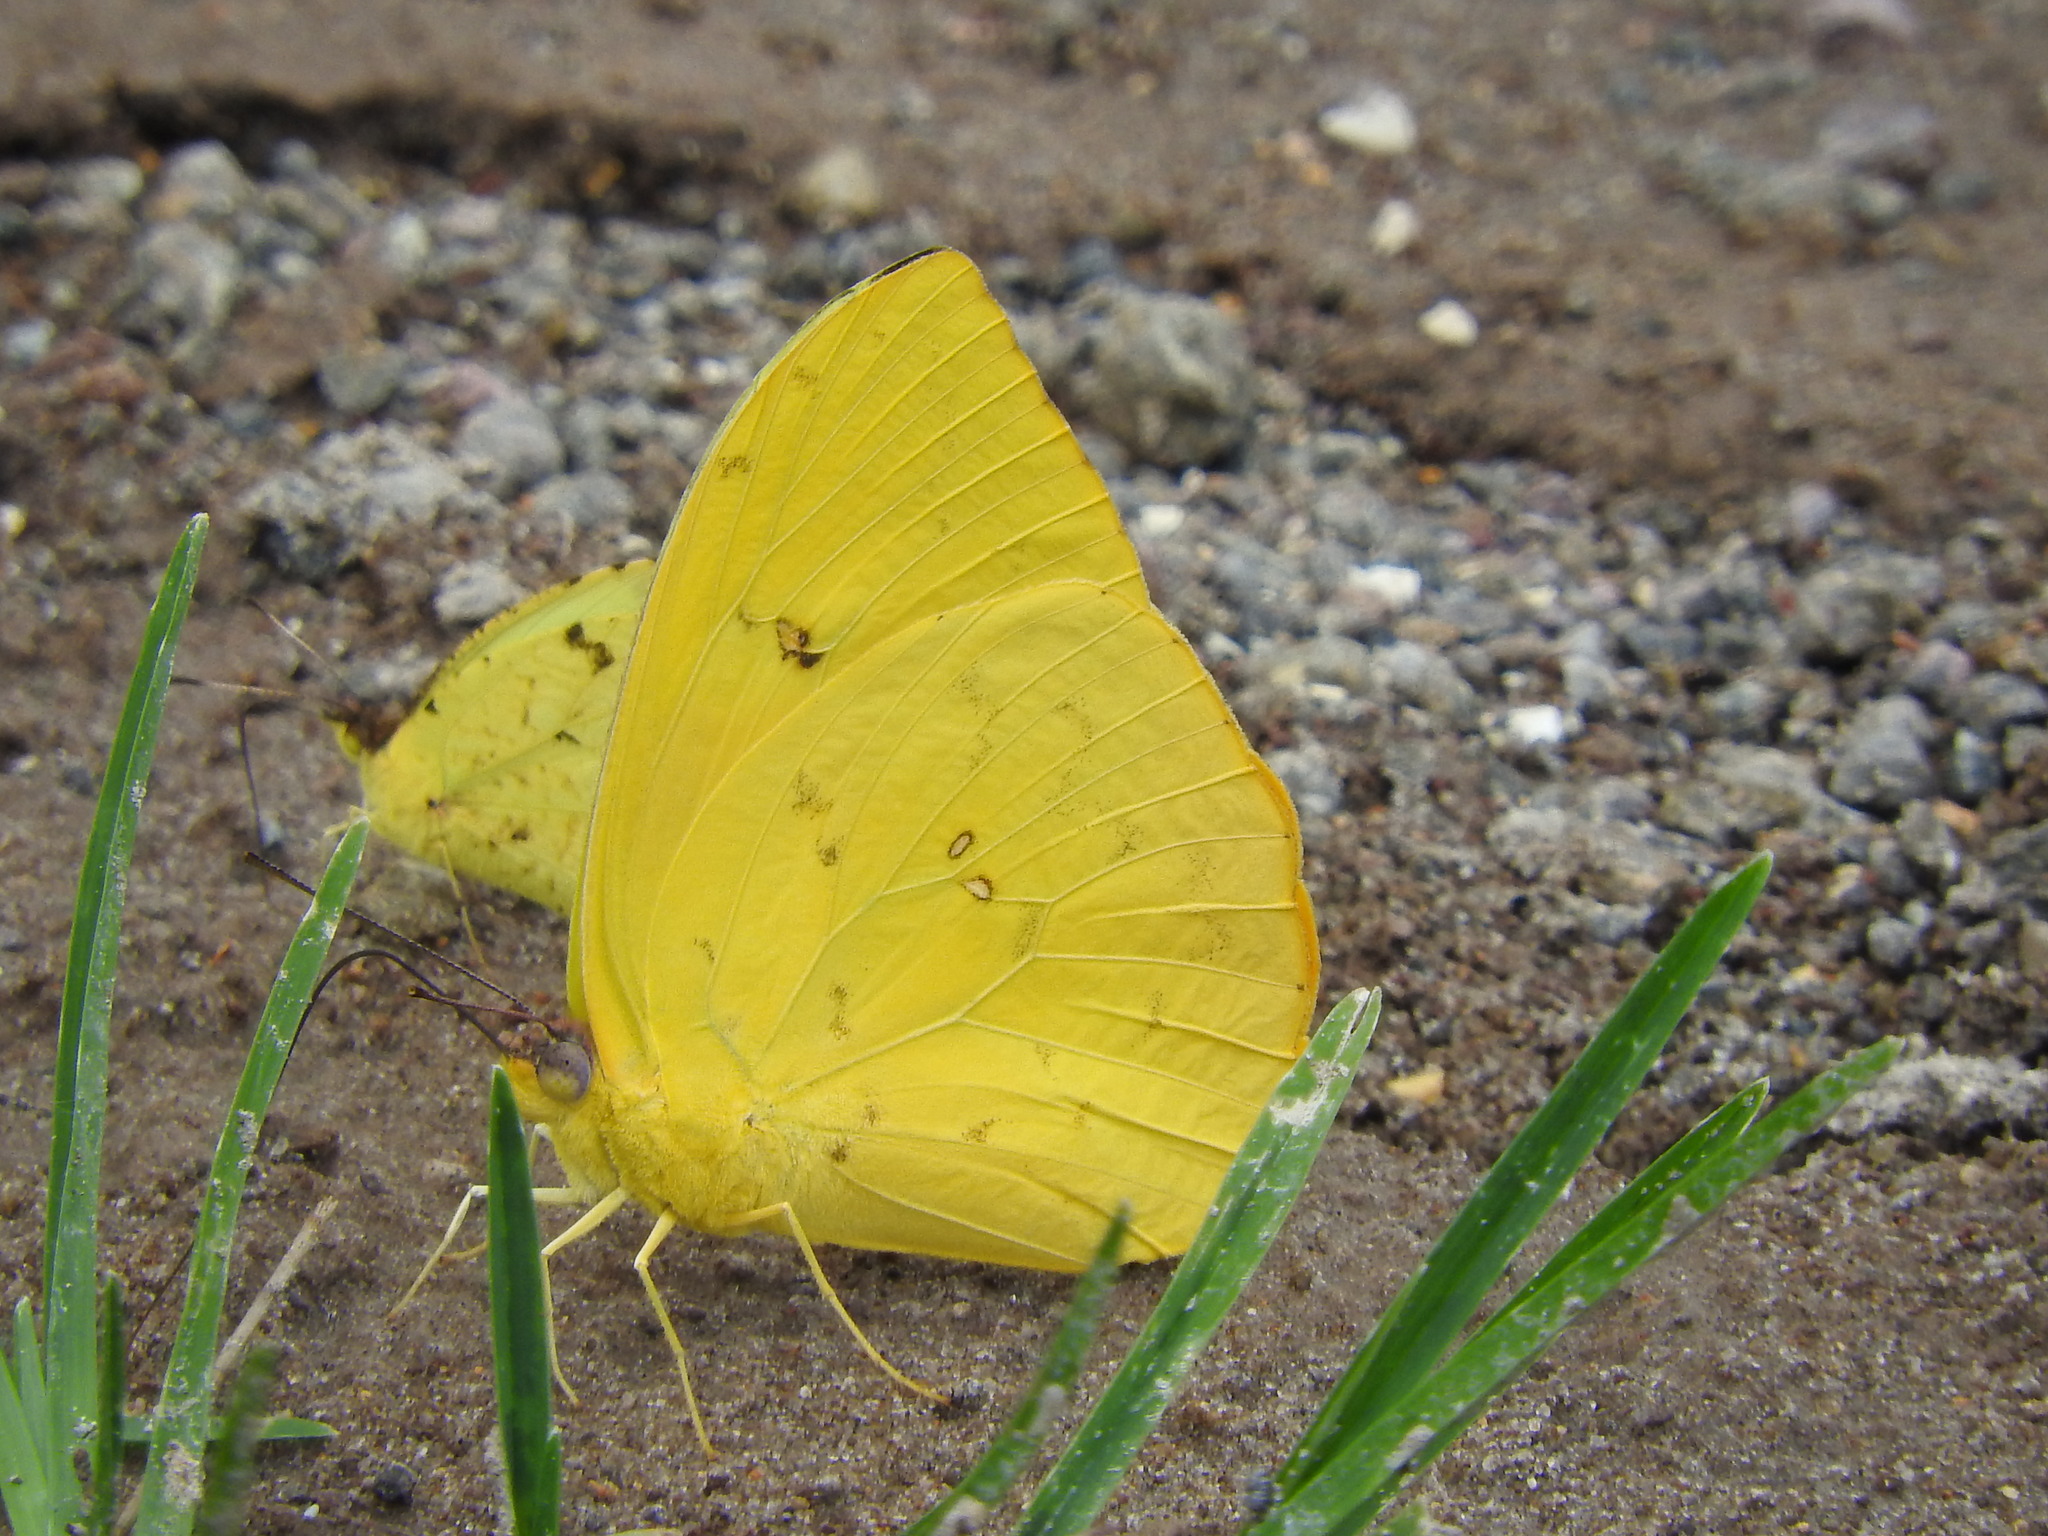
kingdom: Animalia
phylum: Arthropoda
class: Insecta
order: Lepidoptera
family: Pieridae
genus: Phoebis
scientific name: Phoebis philea
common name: Orange-barred giant sulphur
